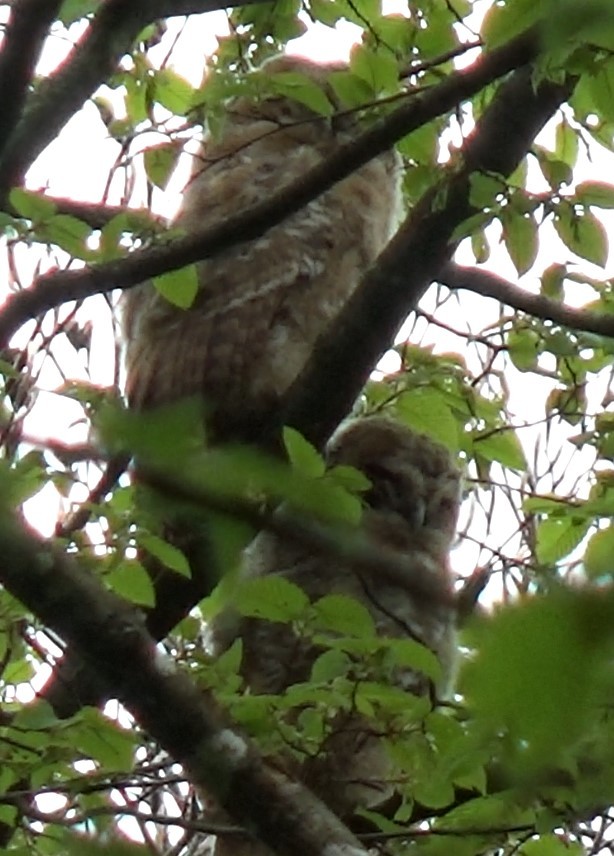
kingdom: Animalia
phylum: Chordata
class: Aves
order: Strigiformes
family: Strigidae
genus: Strix
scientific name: Strix aluco
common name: Tawny owl
